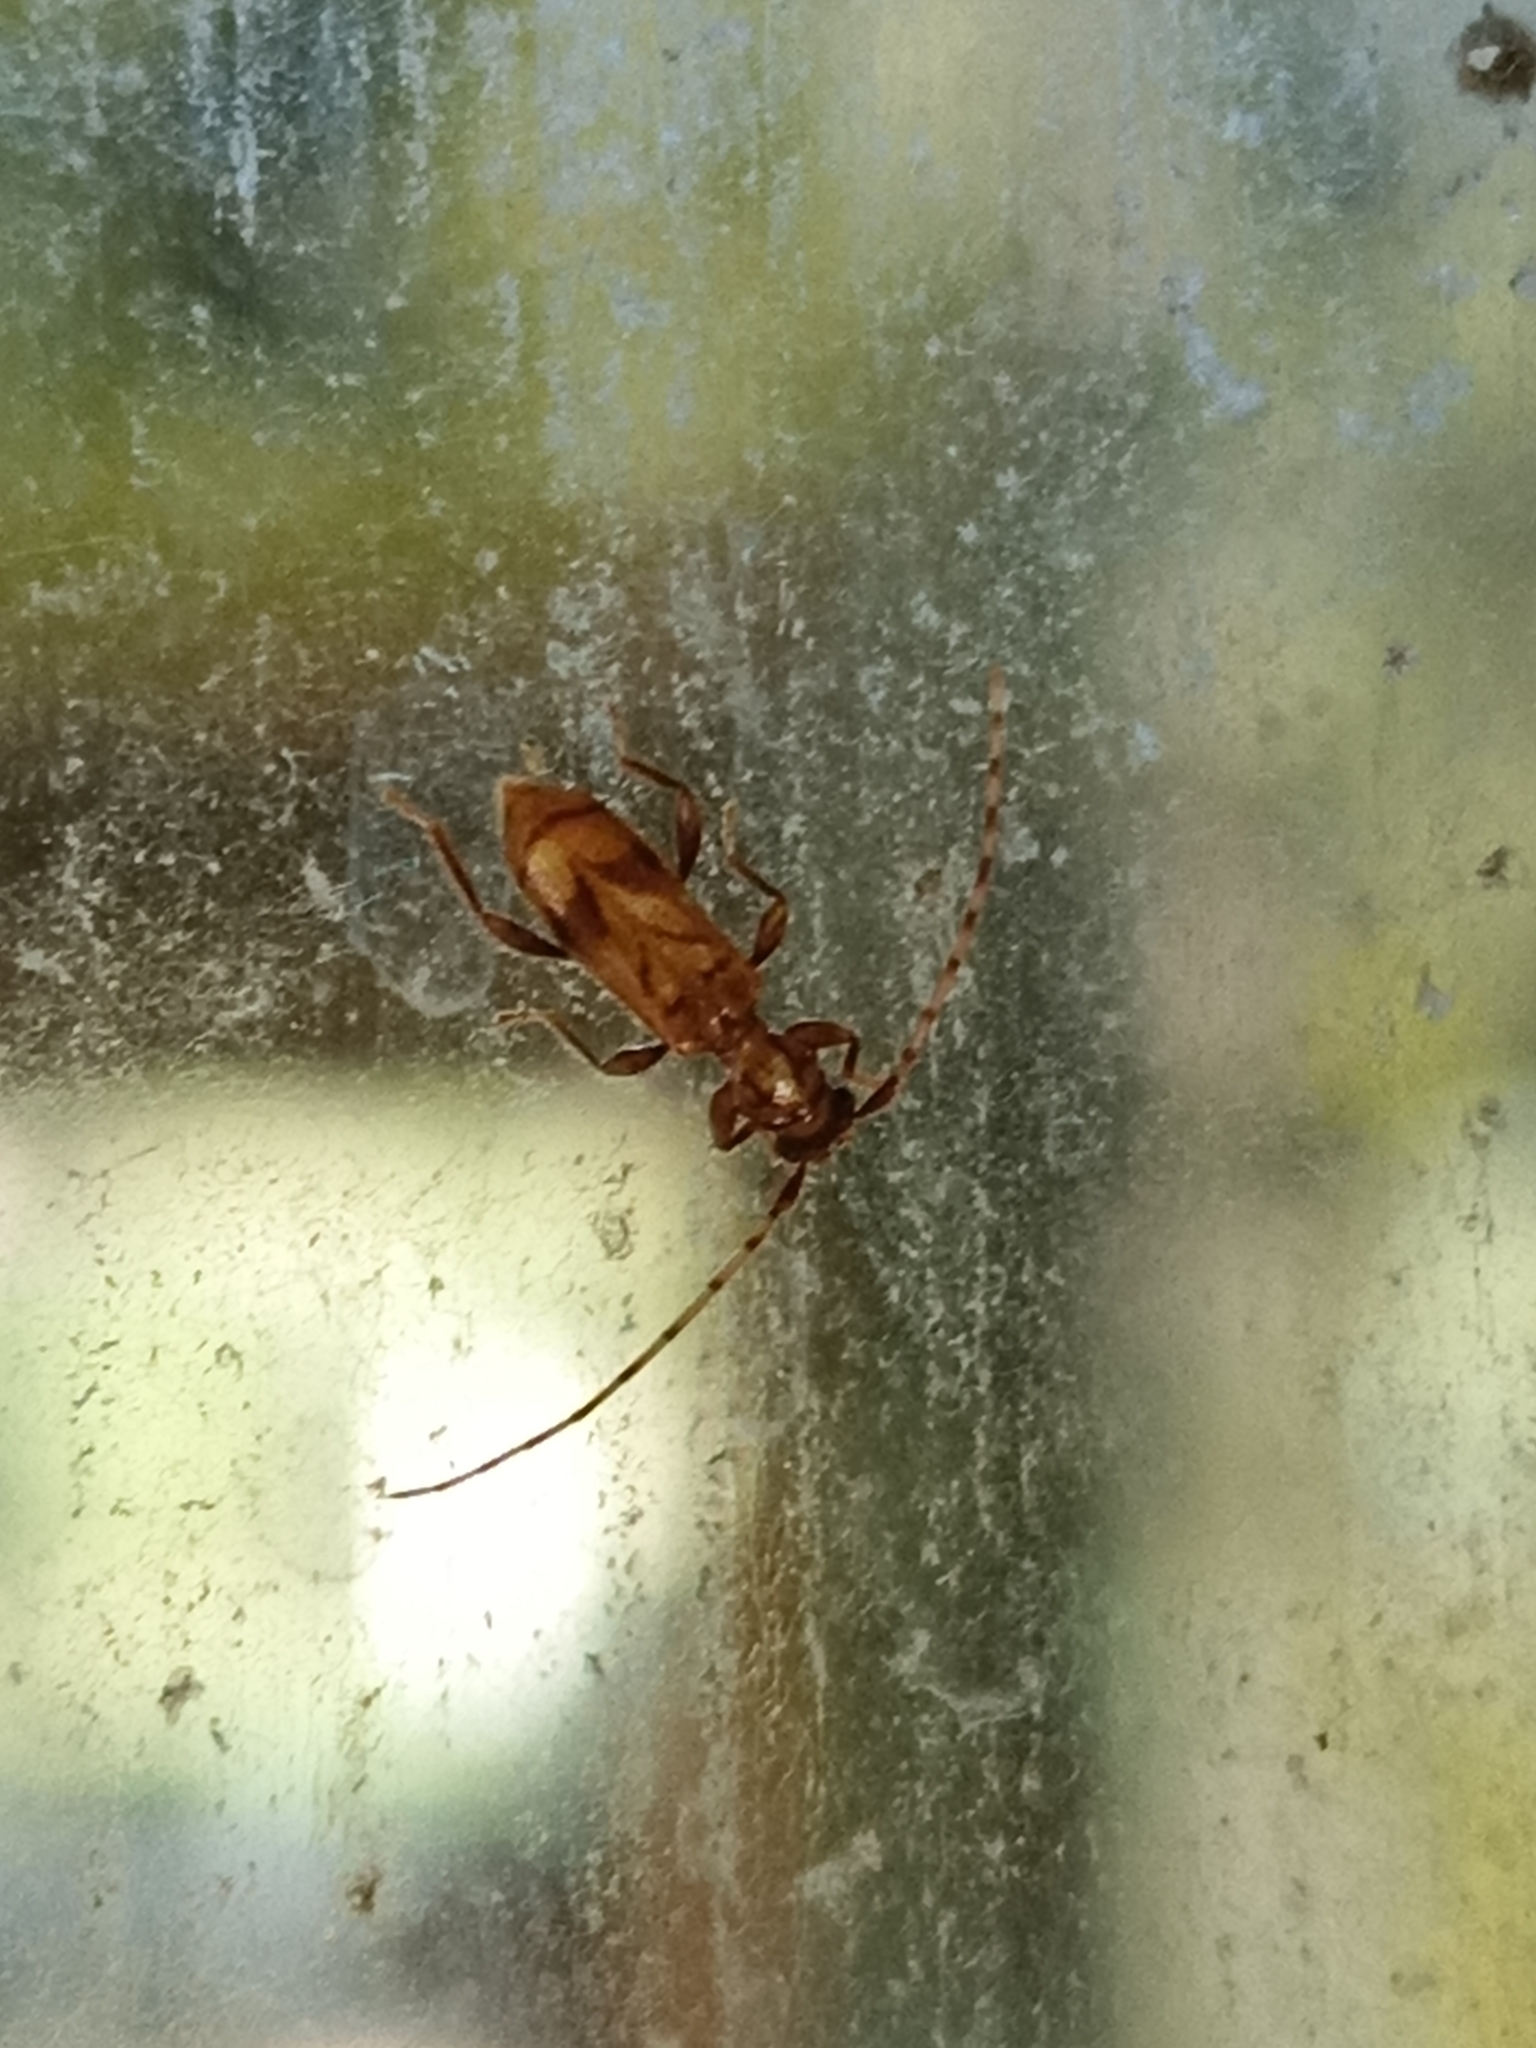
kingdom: Animalia
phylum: Arthropoda
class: Insecta
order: Coleoptera
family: Cerambycidae
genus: Obrium
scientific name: Obrium maculatum
